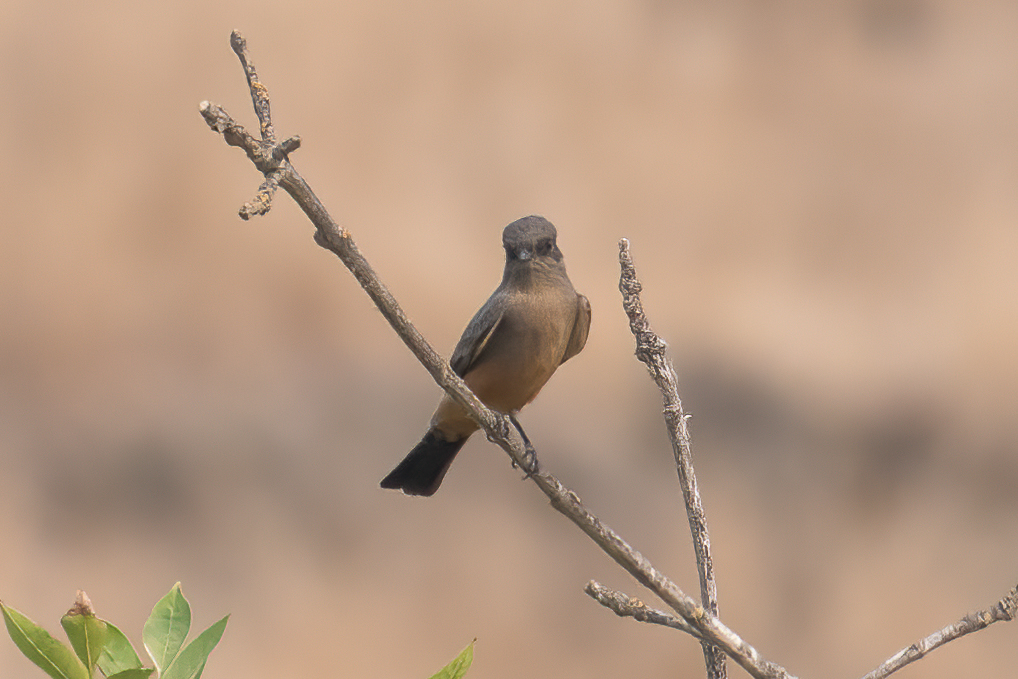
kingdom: Animalia
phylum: Chordata
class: Aves
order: Passeriformes
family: Tyrannidae
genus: Sayornis
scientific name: Sayornis saya
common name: Say's phoebe
